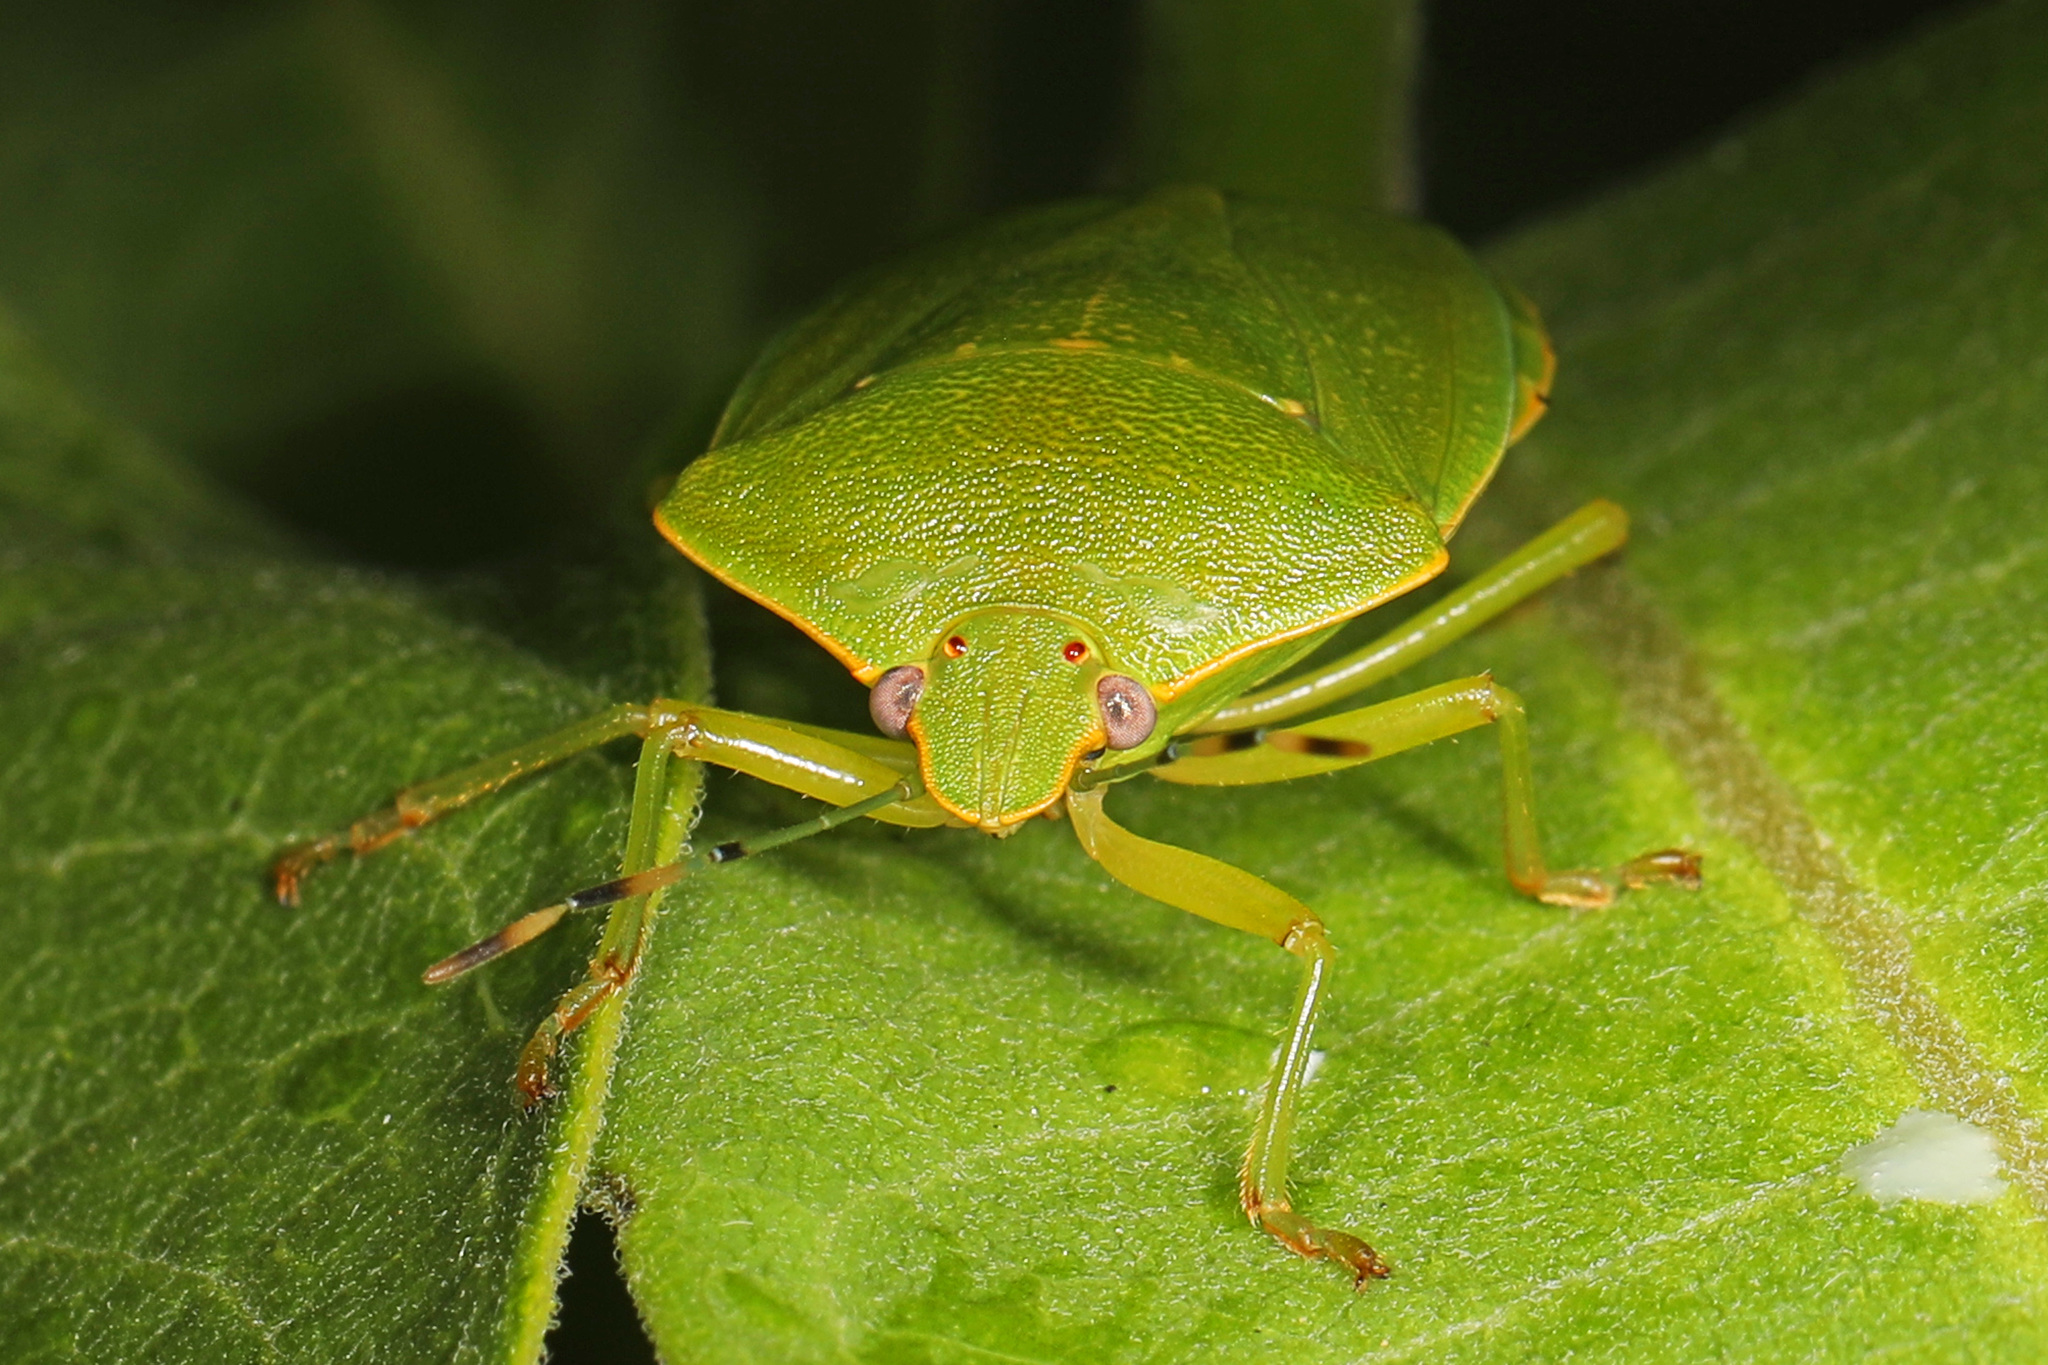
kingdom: Animalia
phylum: Arthropoda
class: Insecta
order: Hemiptera
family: Pentatomidae
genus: Chinavia
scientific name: Chinavia hilaris
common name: Green stink bug
